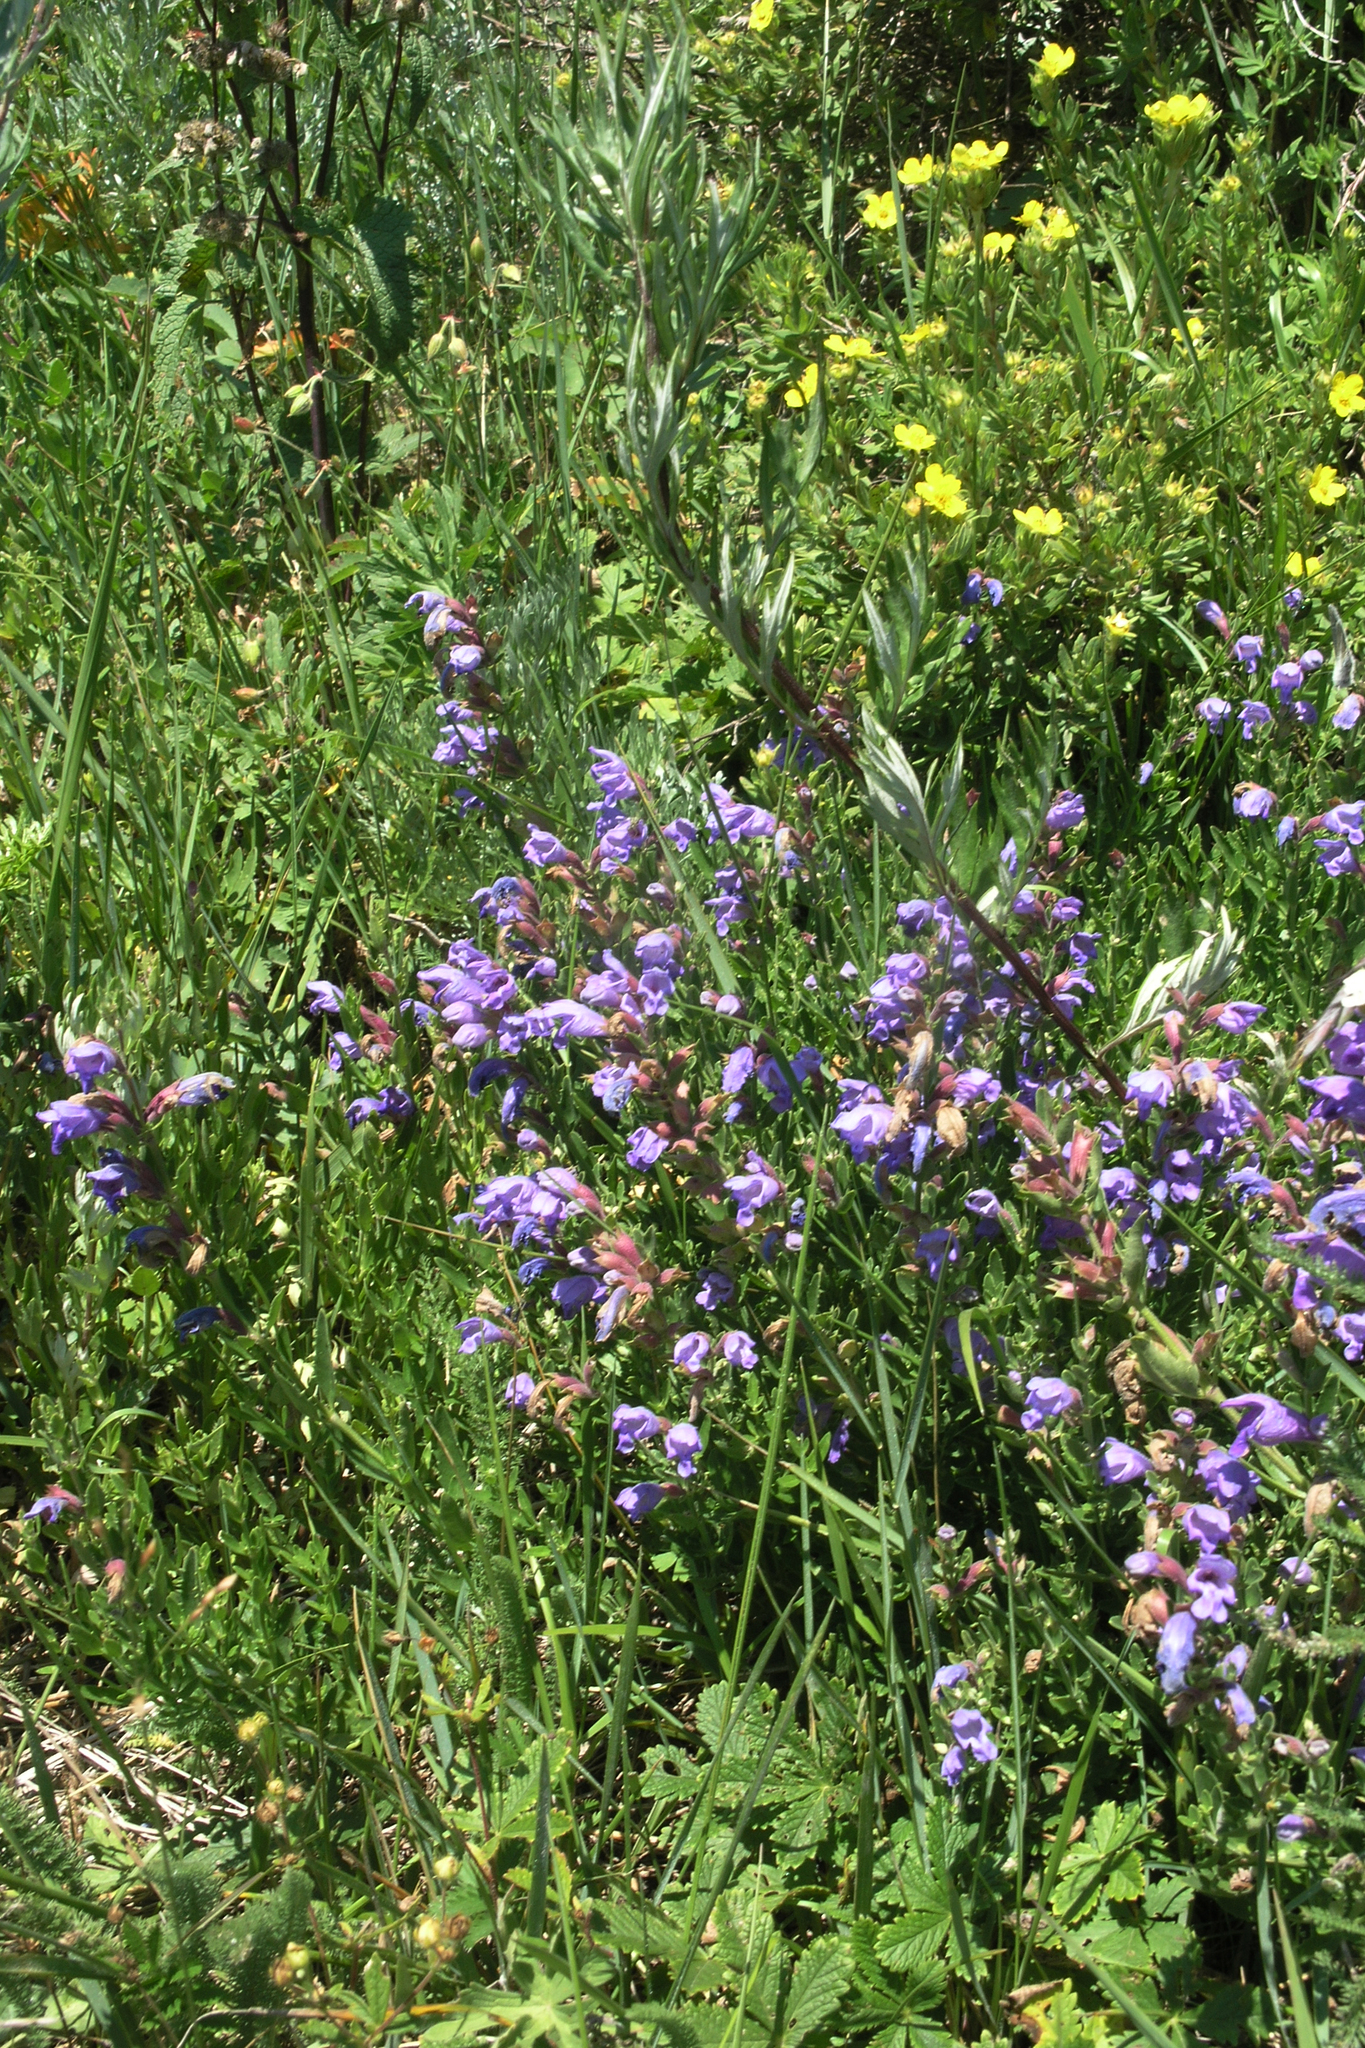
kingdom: Plantae
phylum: Tracheophyta
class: Magnoliopsida
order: Lamiales
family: Lamiaceae
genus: Dracocephalum
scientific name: Dracocephalum peregrinum
